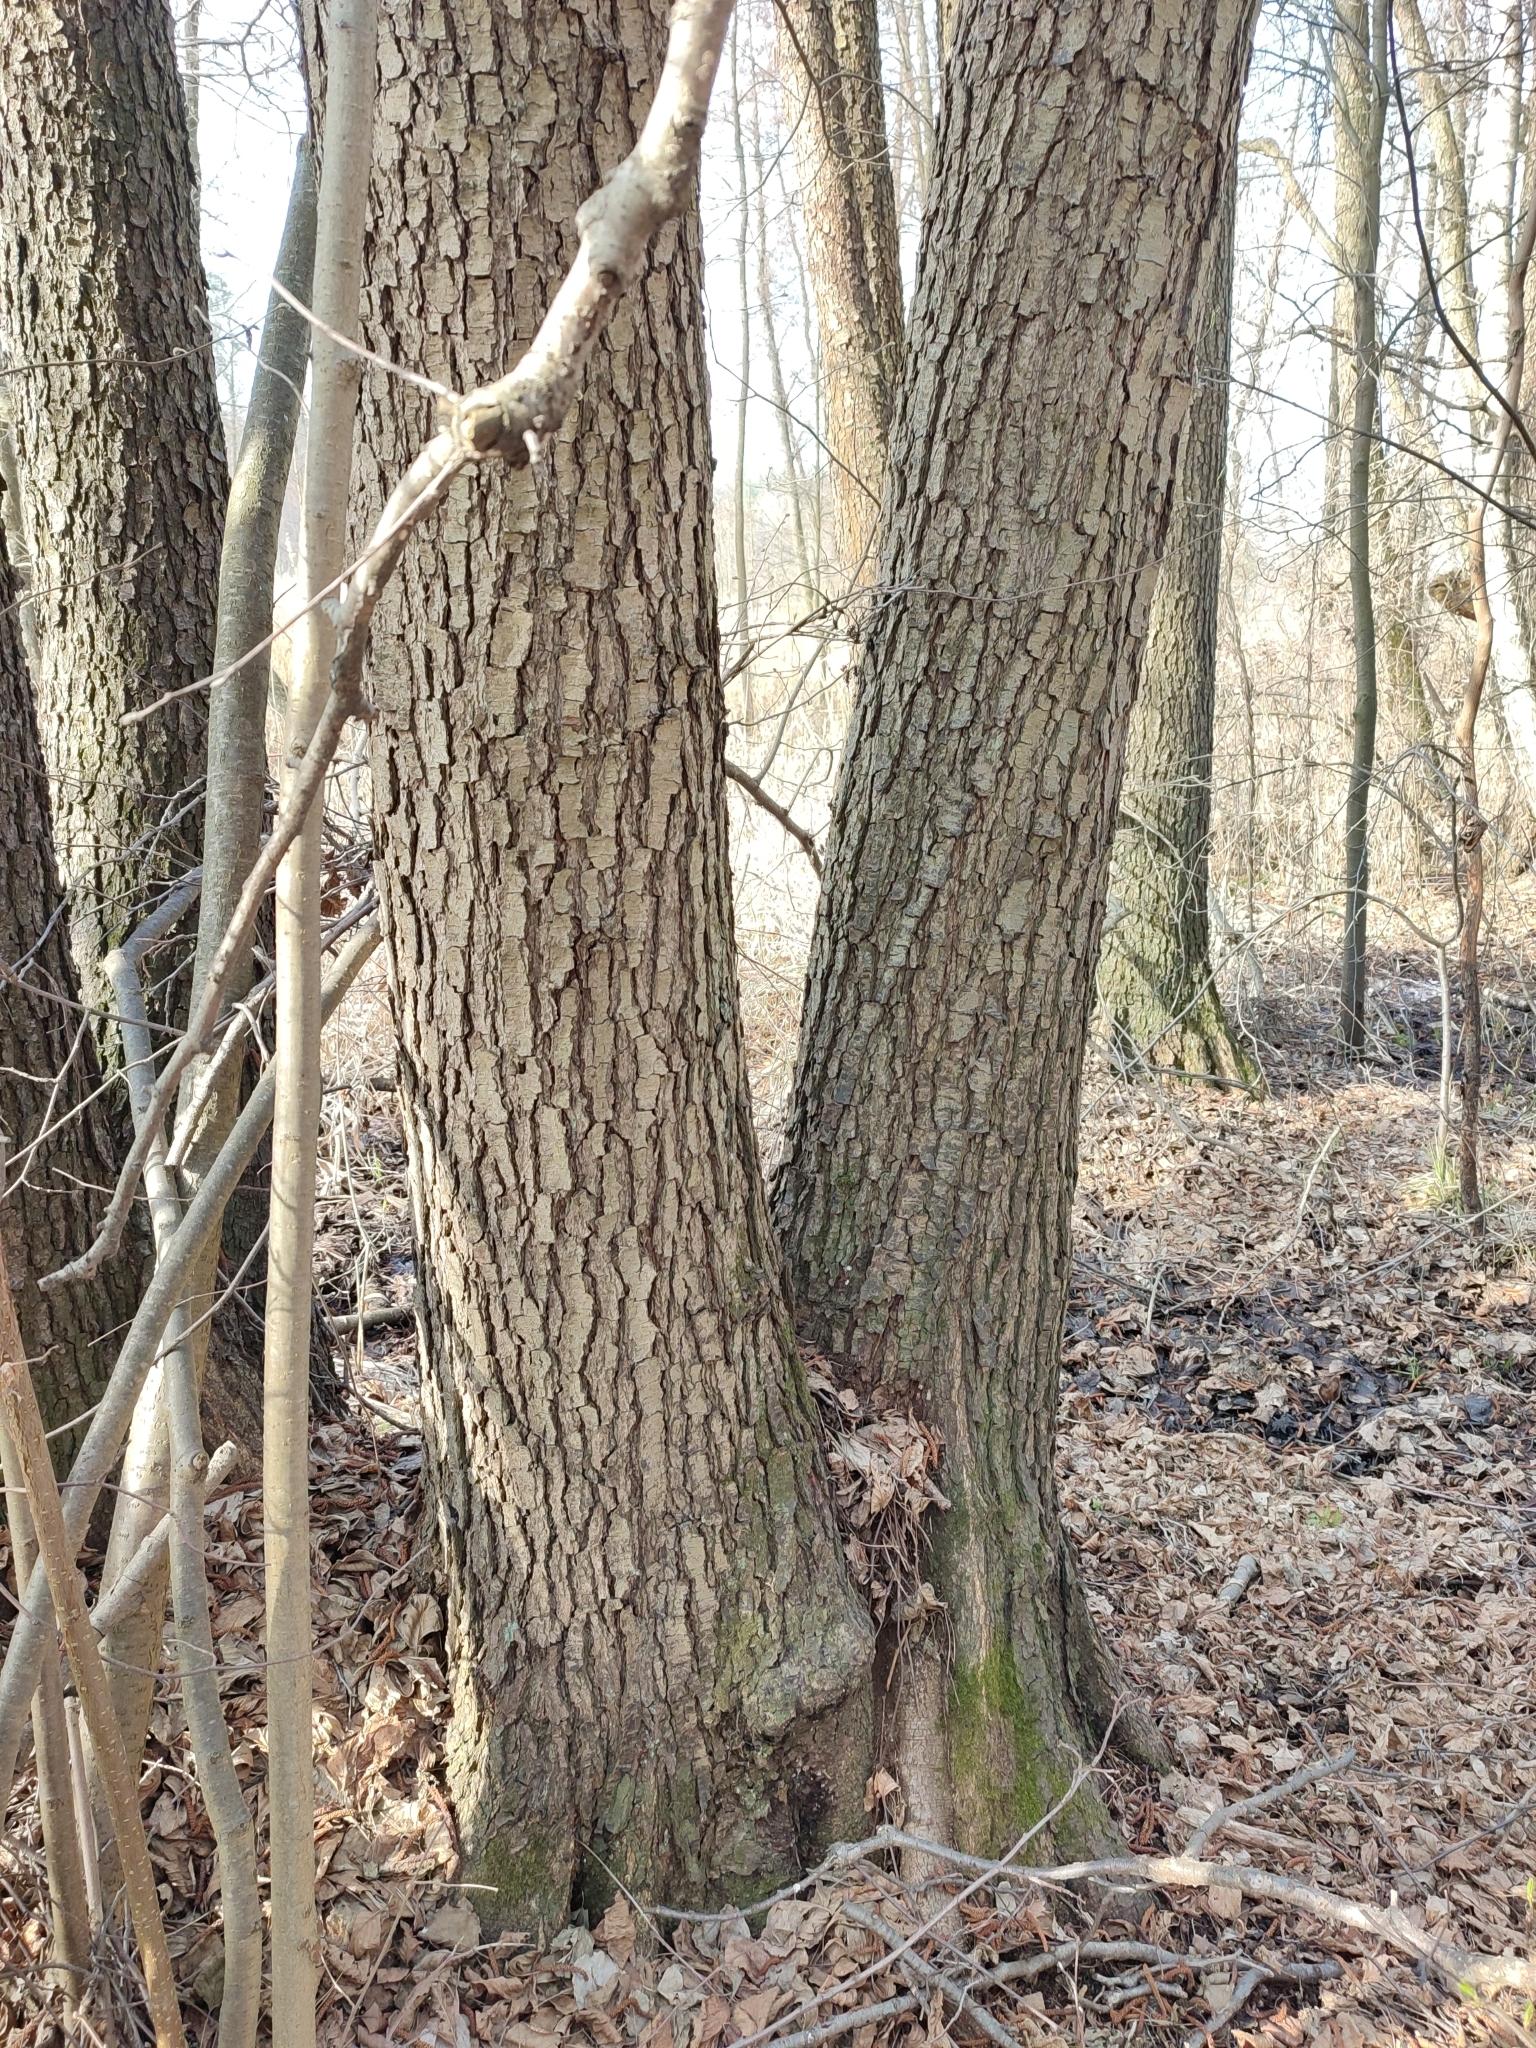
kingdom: Plantae
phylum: Tracheophyta
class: Magnoliopsida
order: Fagales
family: Betulaceae
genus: Alnus
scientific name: Alnus glutinosa
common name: Black alder
